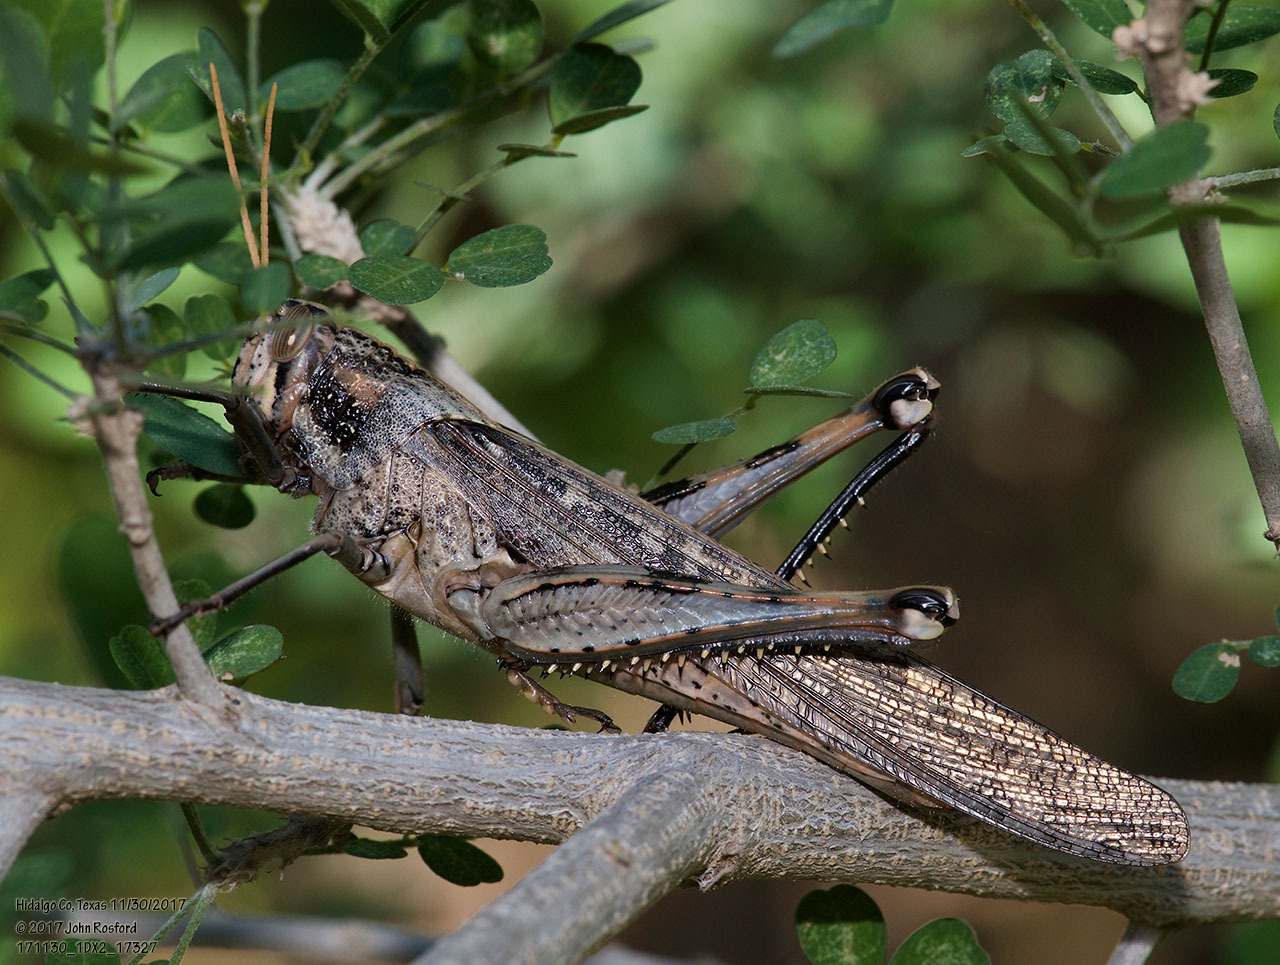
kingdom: Animalia
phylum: Arthropoda
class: Insecta
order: Orthoptera
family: Acrididae
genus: Schistocerca
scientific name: Schistocerca nitens
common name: Vagrant grasshopper
